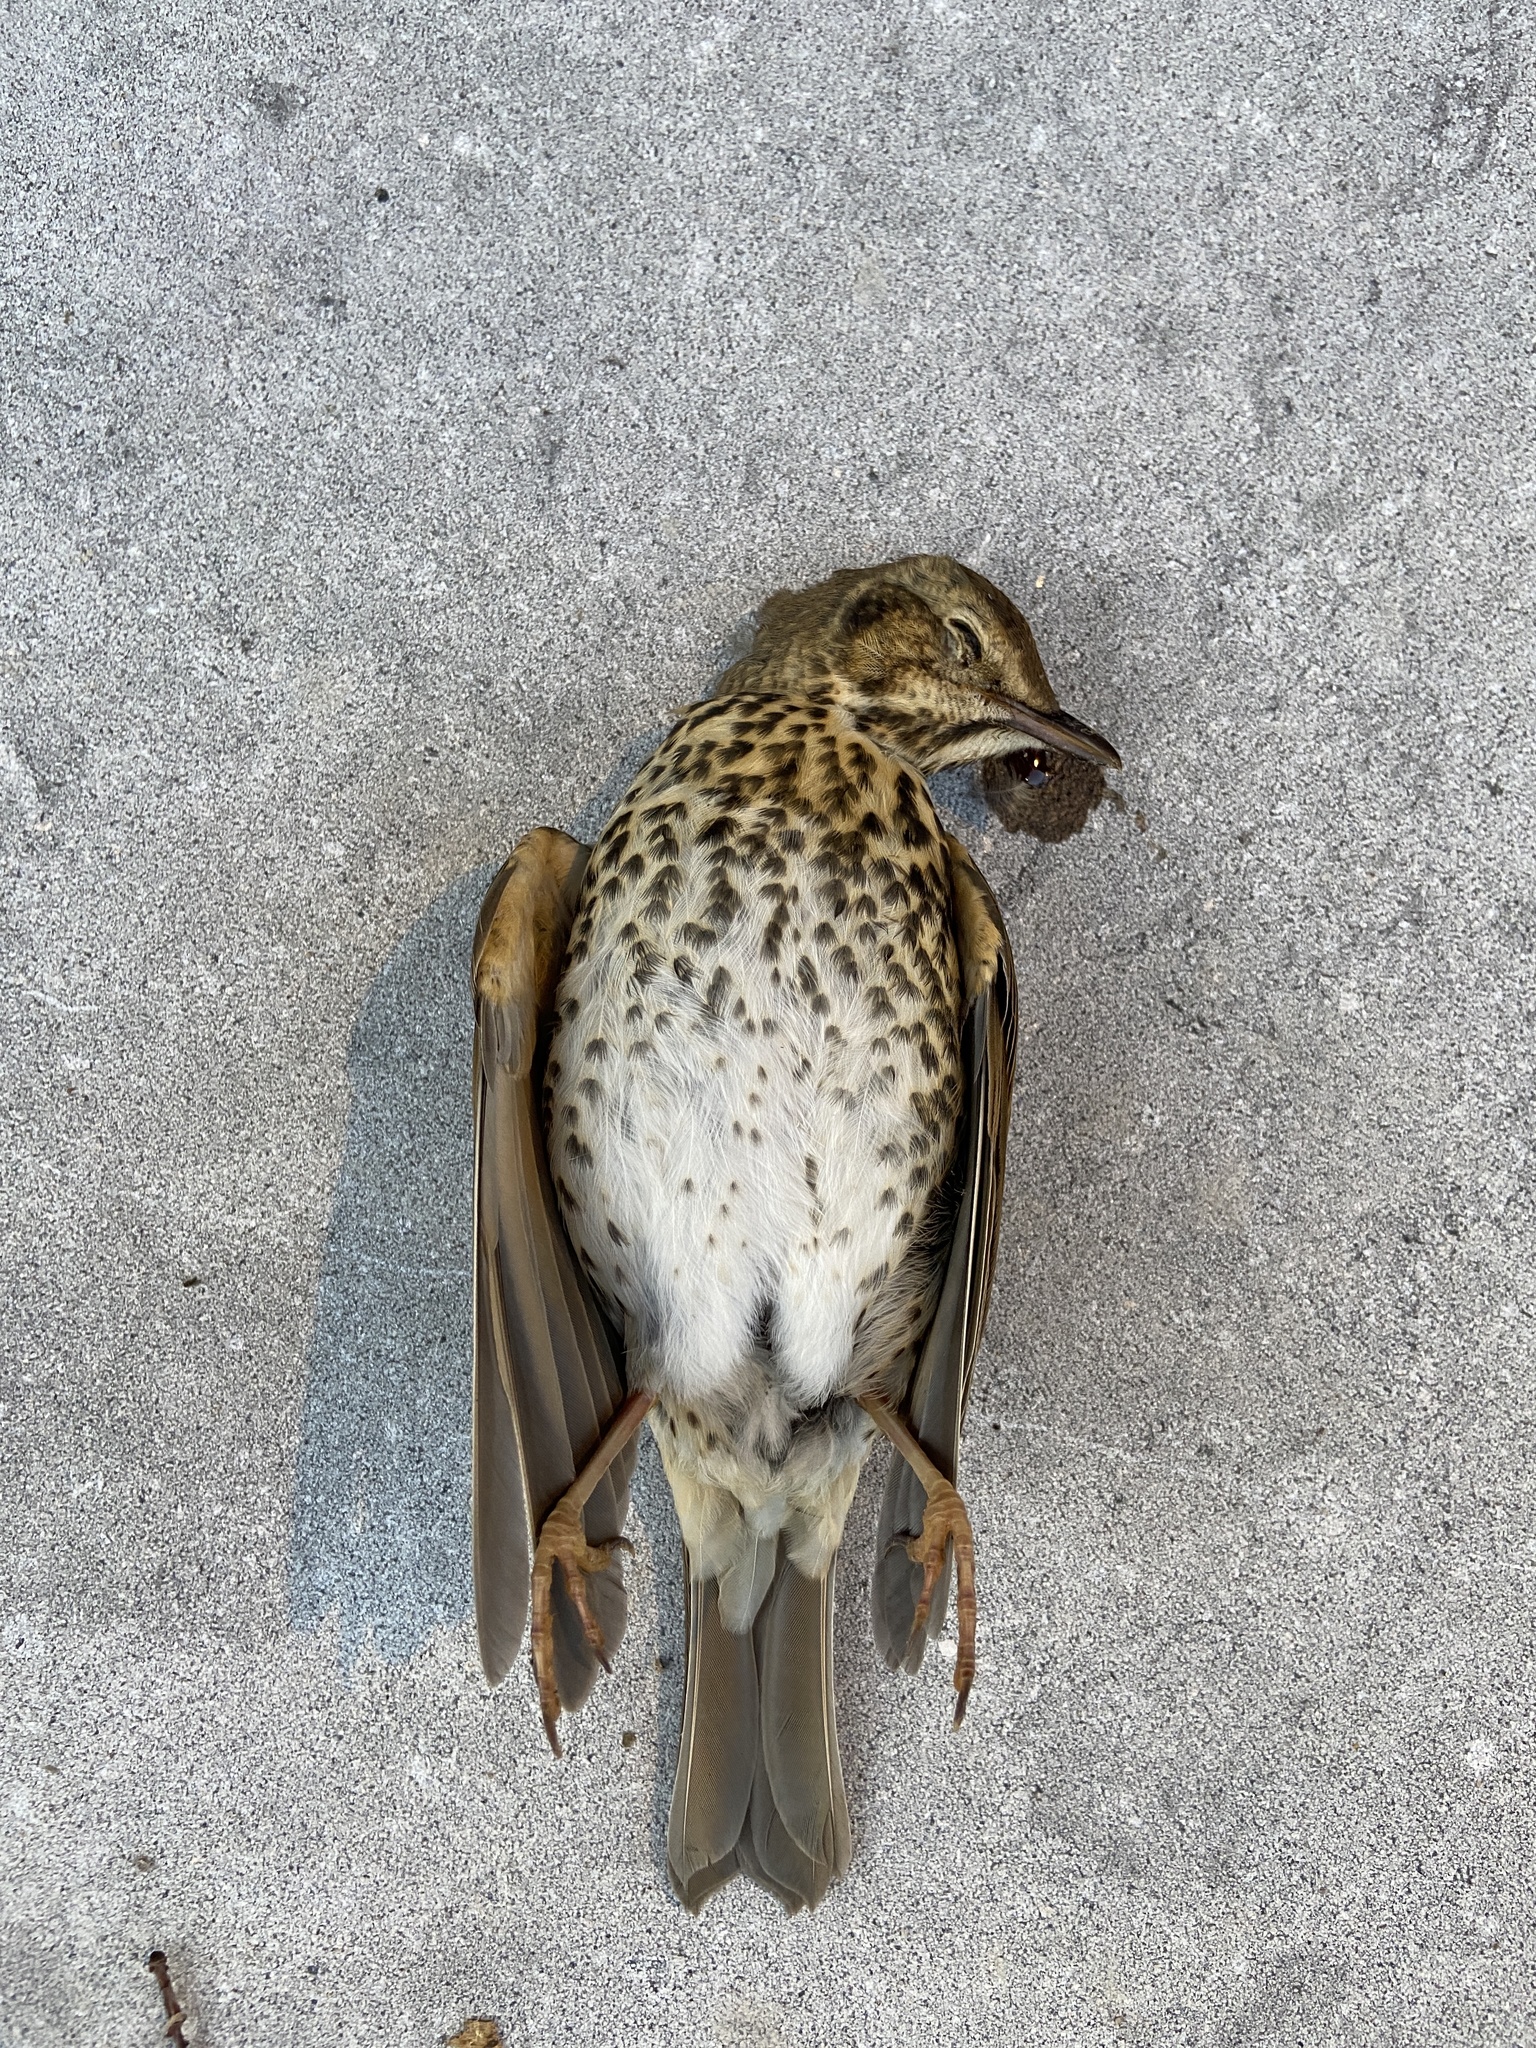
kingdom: Animalia
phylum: Chordata
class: Aves
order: Passeriformes
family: Turdidae
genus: Turdus
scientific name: Turdus philomelos
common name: Song thrush
